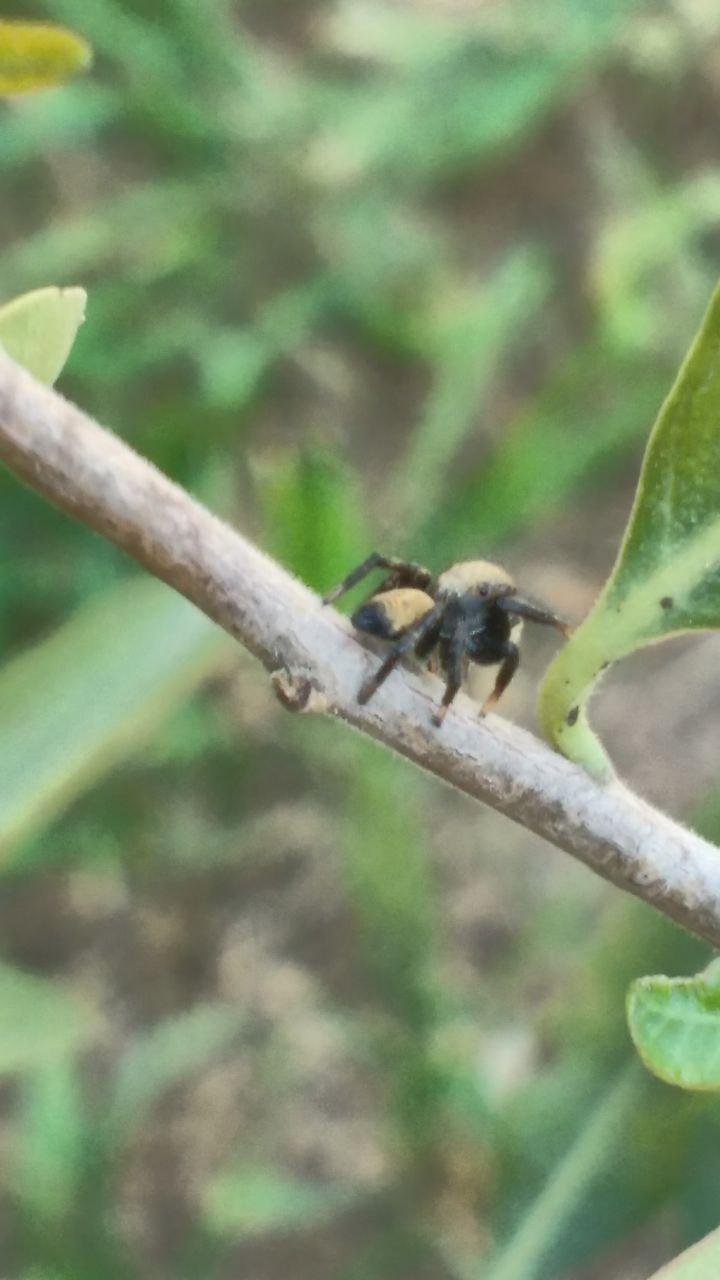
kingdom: Animalia
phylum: Arthropoda
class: Arachnida
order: Araneae
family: Salticidae
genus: Phiale
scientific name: Phiale roburifoliata
